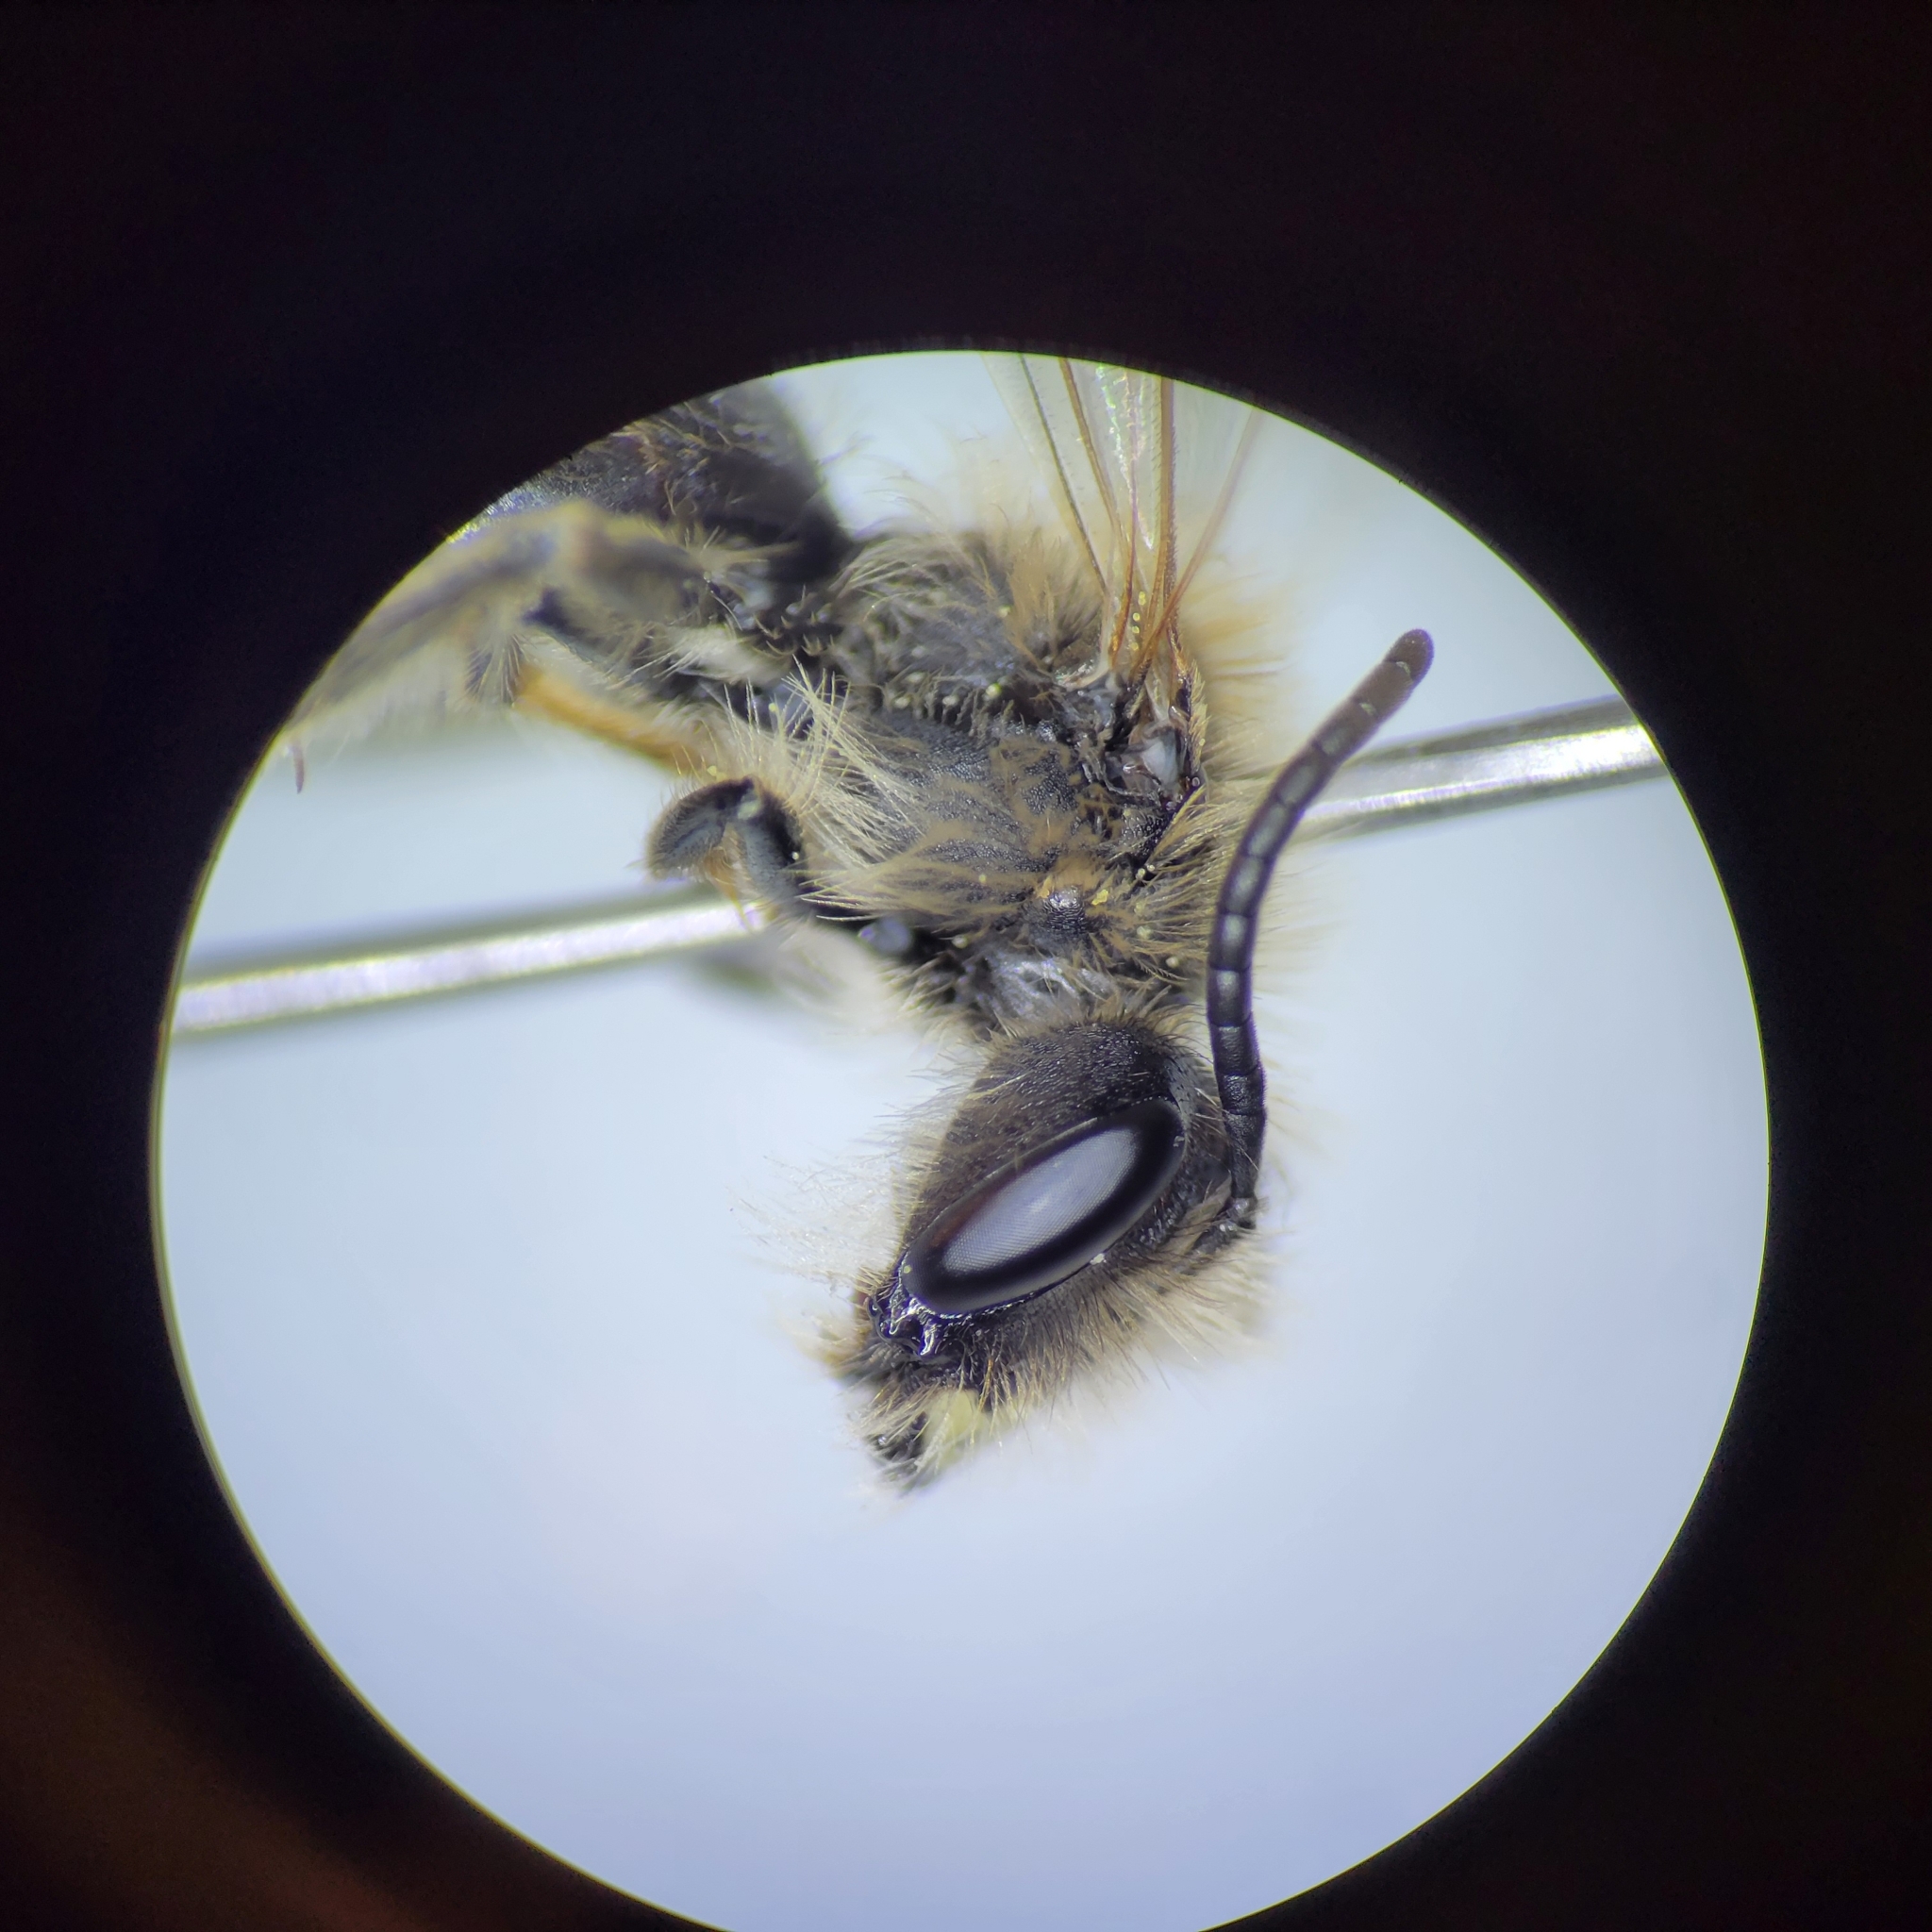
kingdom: Animalia
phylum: Arthropoda
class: Insecta
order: Hymenoptera
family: Andrenidae
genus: Andrena
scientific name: Andrena bradleyi
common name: Bradley's mining bee
